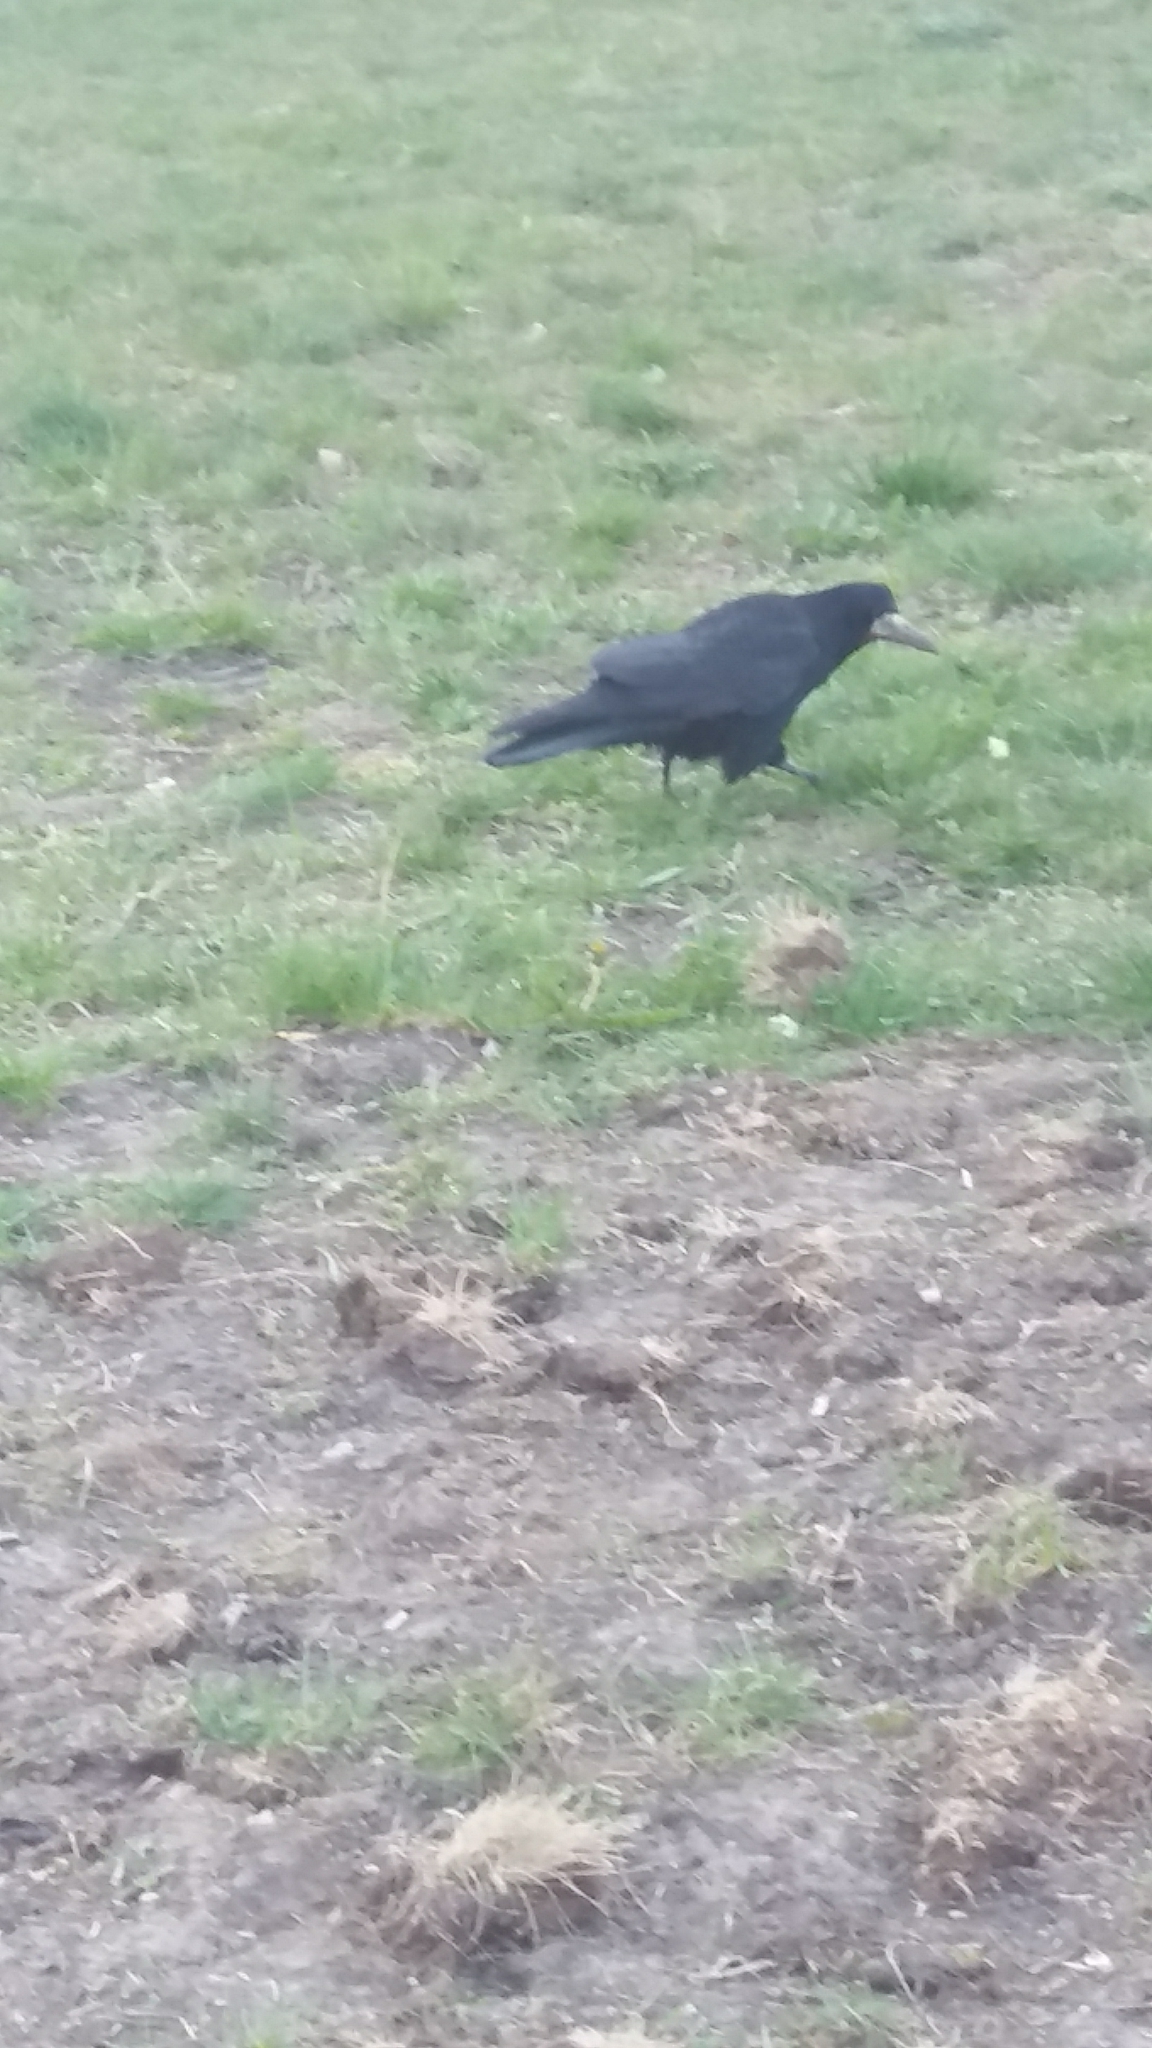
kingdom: Animalia
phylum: Chordata
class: Aves
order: Passeriformes
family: Corvidae
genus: Corvus
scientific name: Corvus frugilegus
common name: Rook
